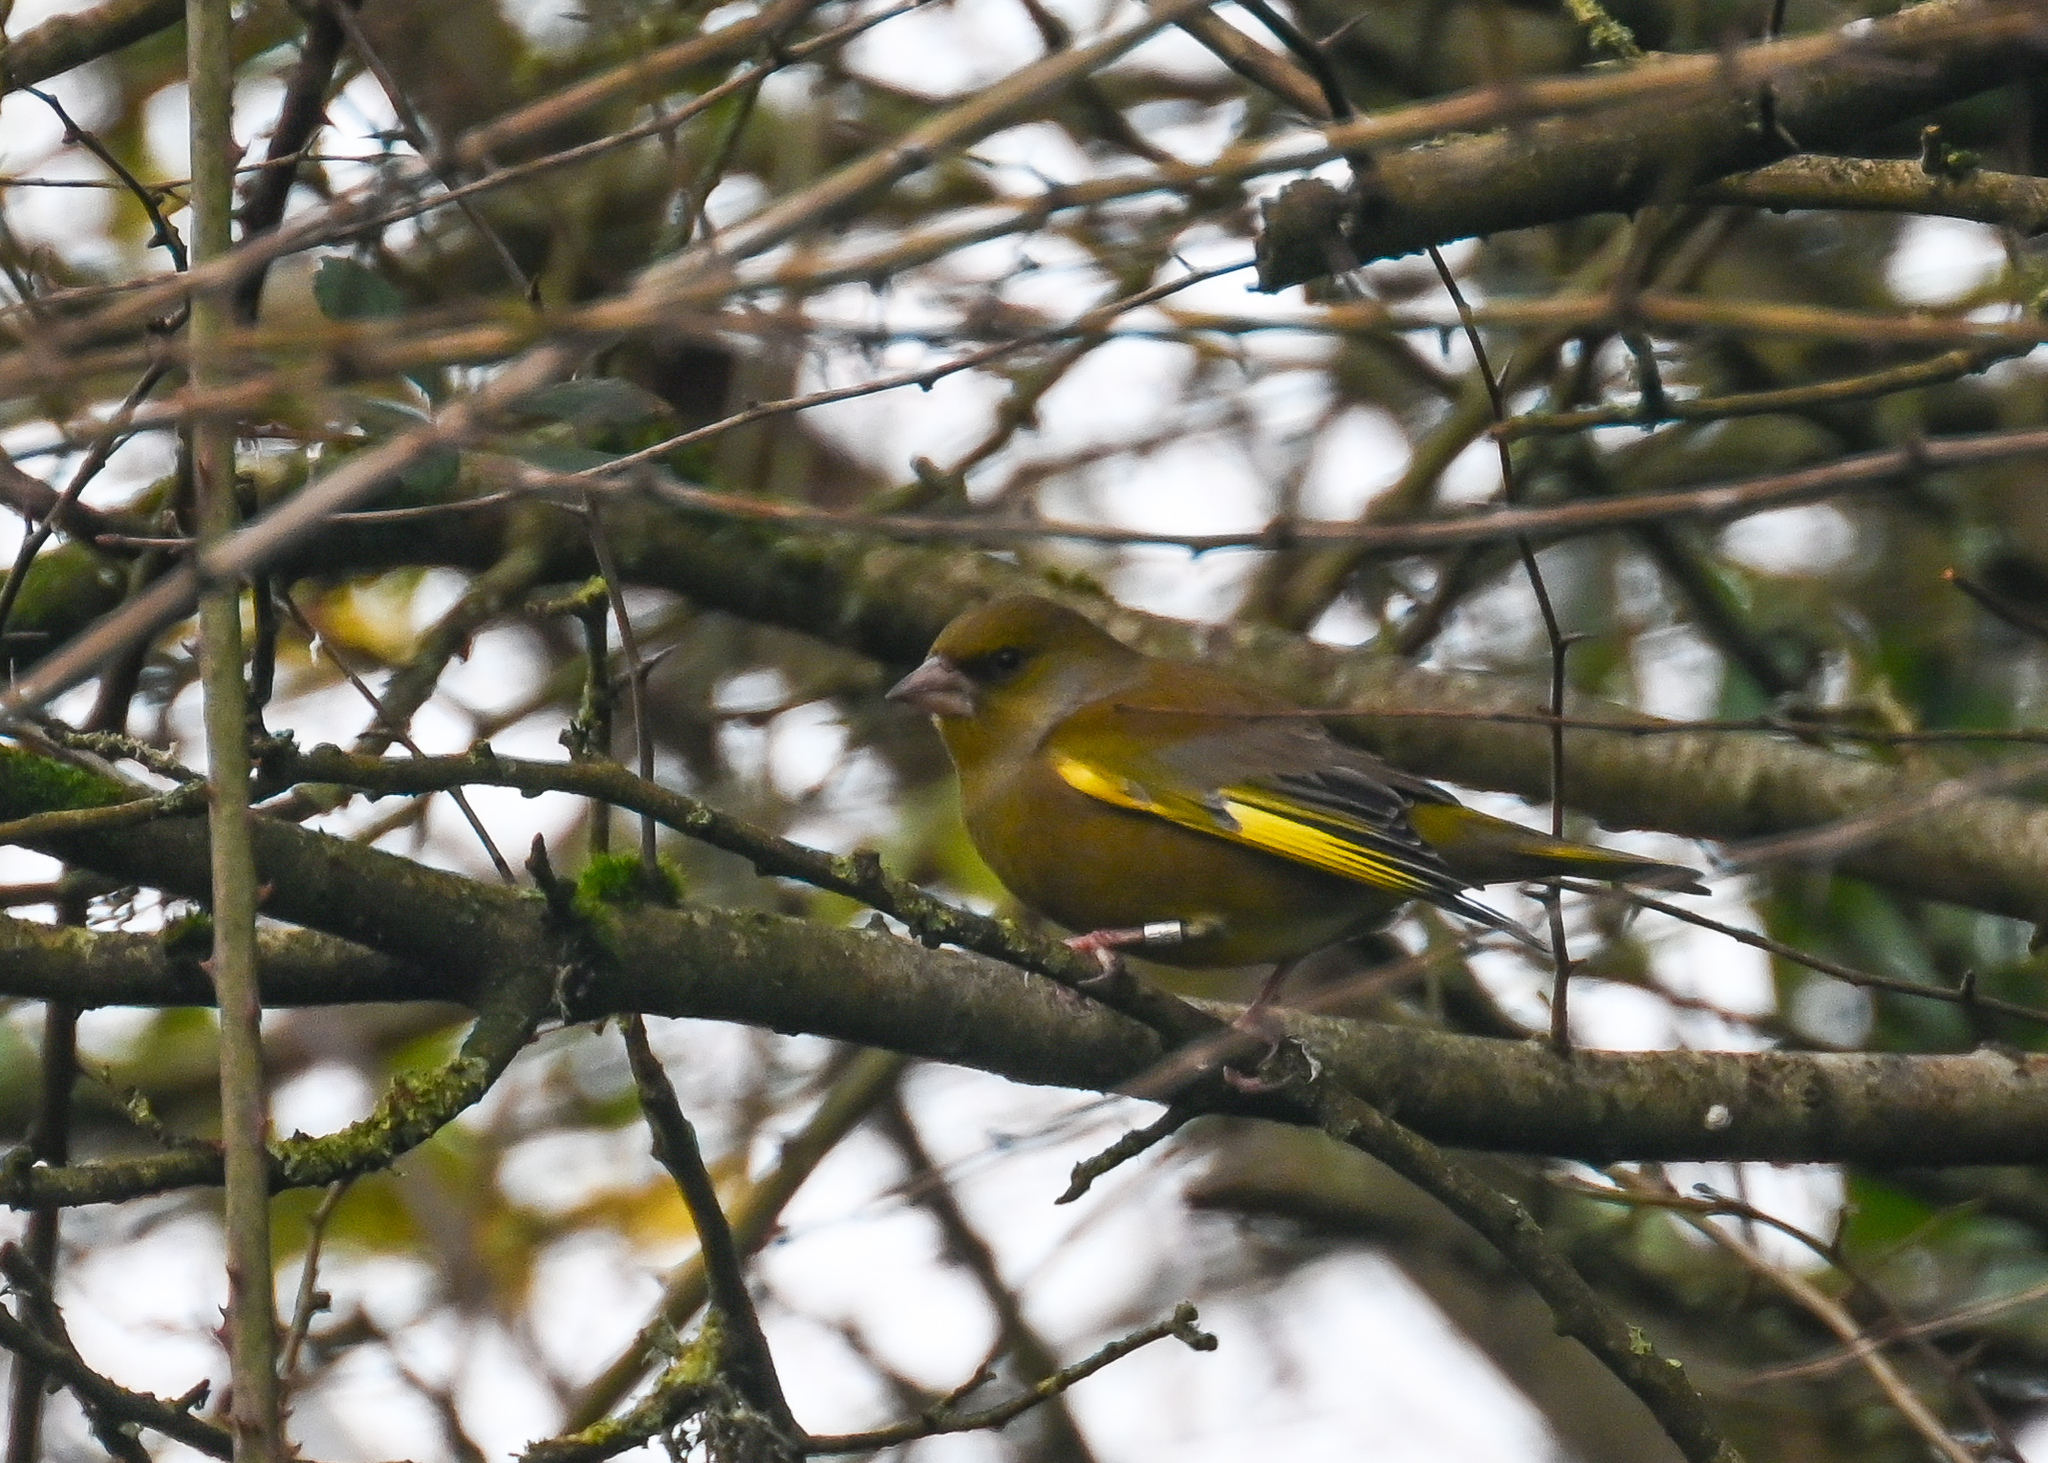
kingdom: Plantae
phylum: Tracheophyta
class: Liliopsida
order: Poales
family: Poaceae
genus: Chloris
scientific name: Chloris chloris
